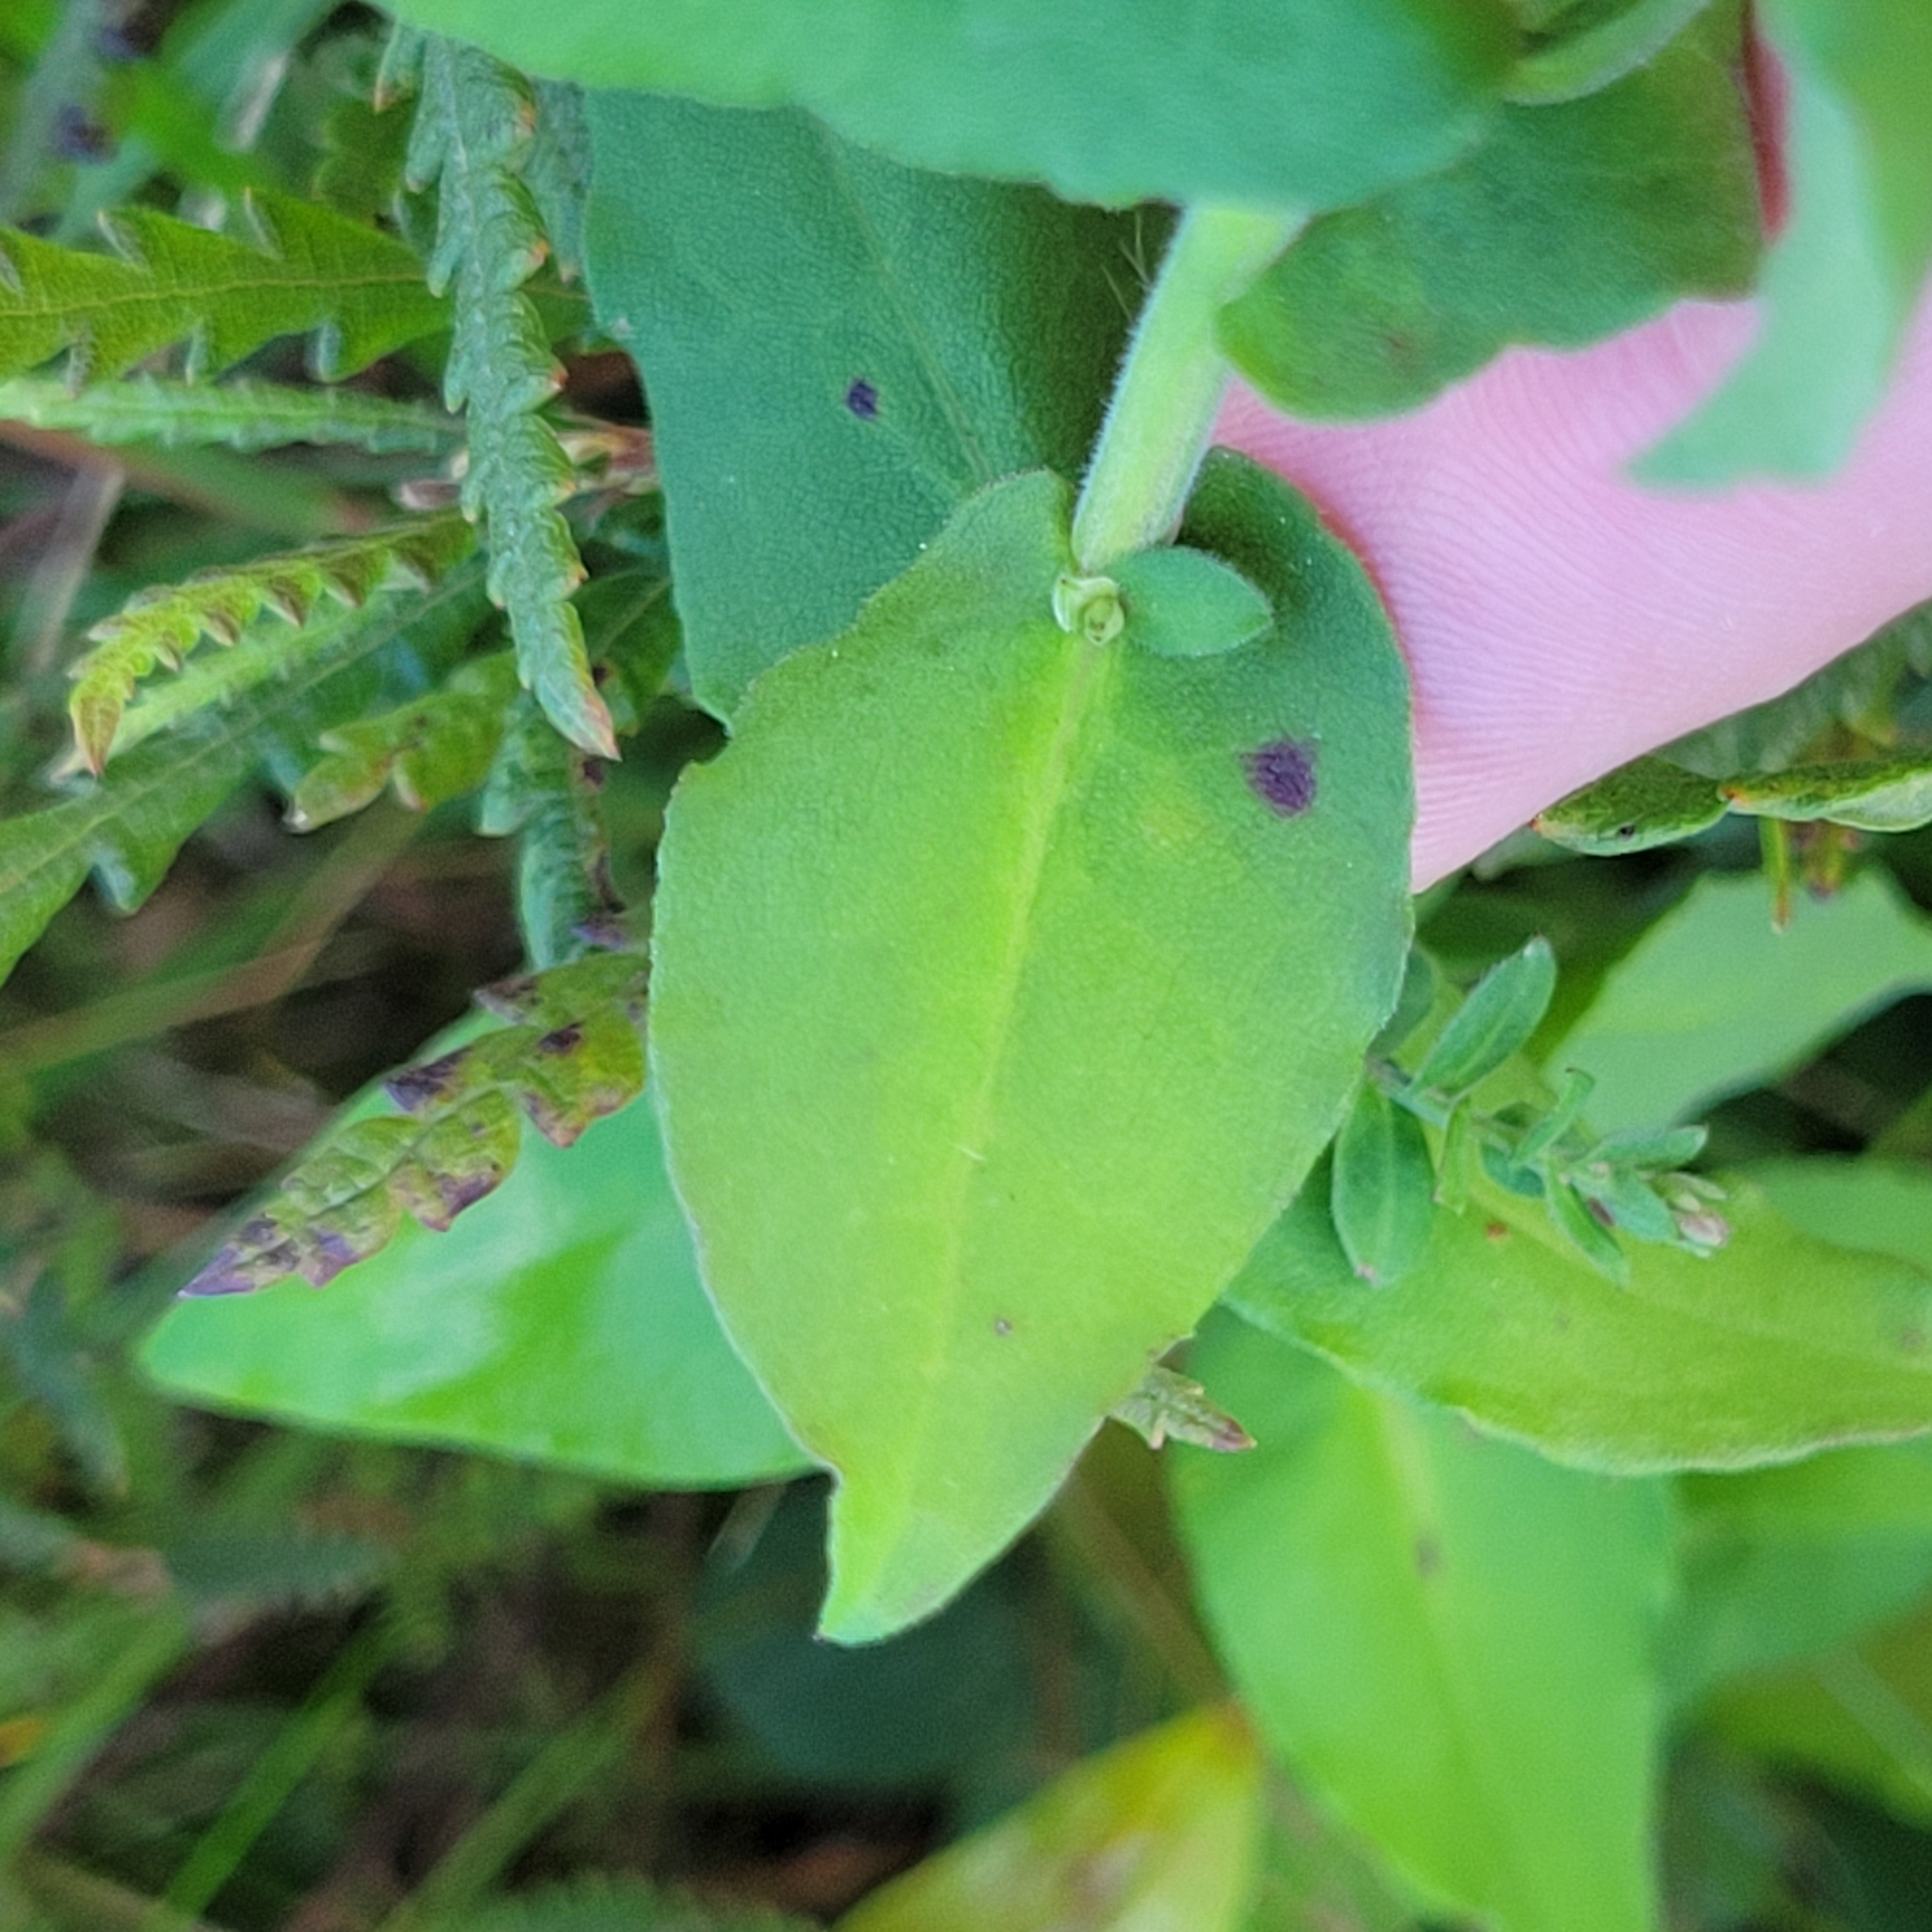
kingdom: Plantae
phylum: Tracheophyta
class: Magnoliopsida
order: Asterales
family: Asteraceae
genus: Symphyotrichum
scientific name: Symphyotrichum undulatum
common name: Clasping heart-leaf aster
